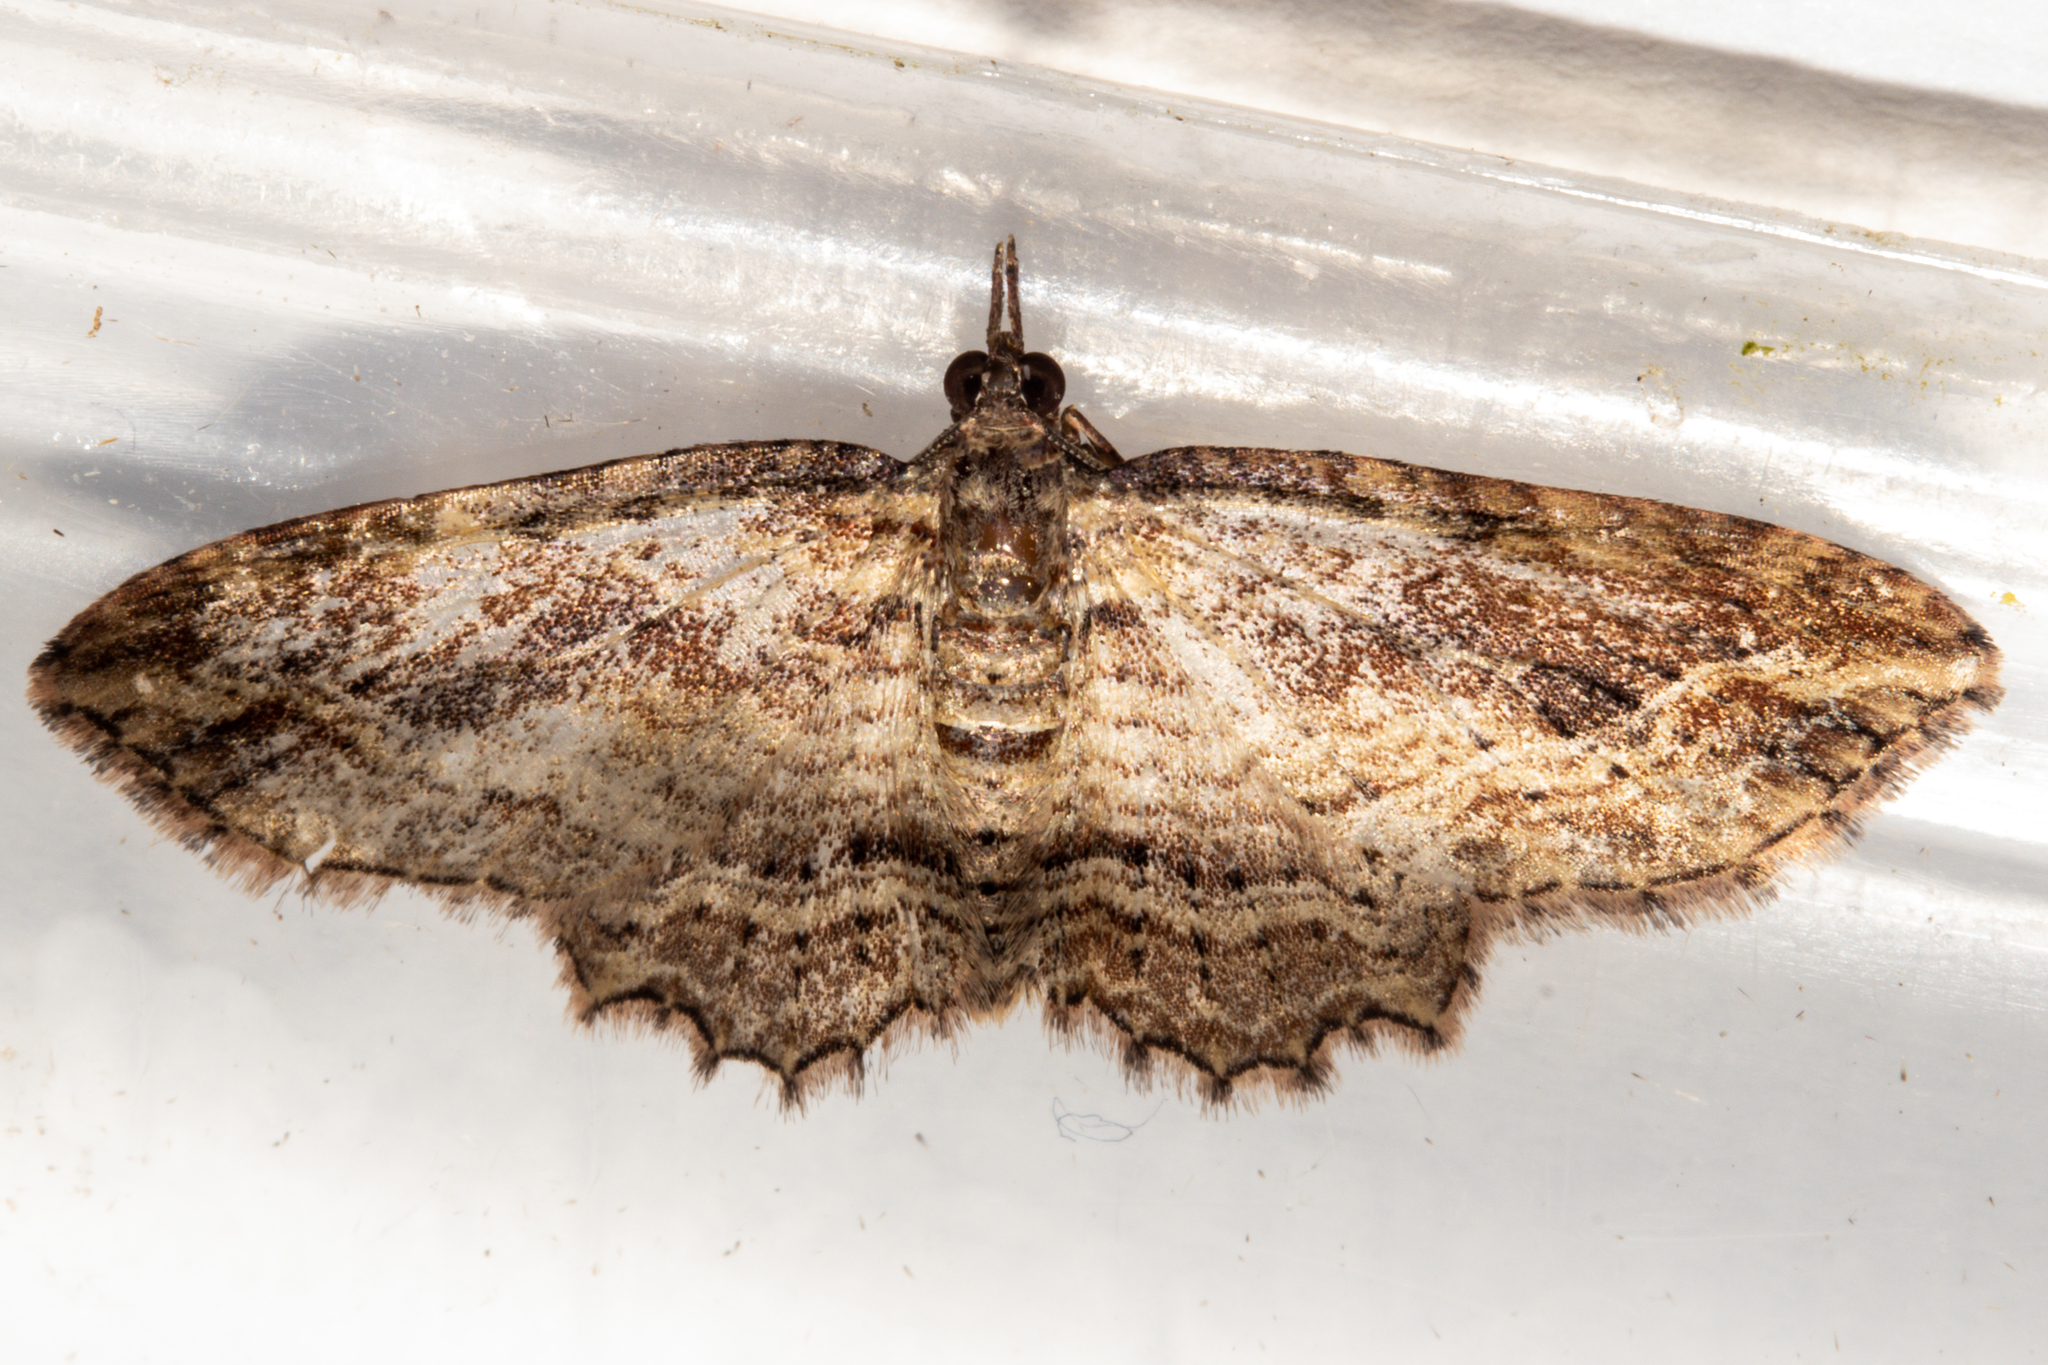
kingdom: Animalia
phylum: Arthropoda
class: Insecta
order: Lepidoptera
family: Geometridae
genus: Chloroclystis
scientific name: Chloroclystis filata
